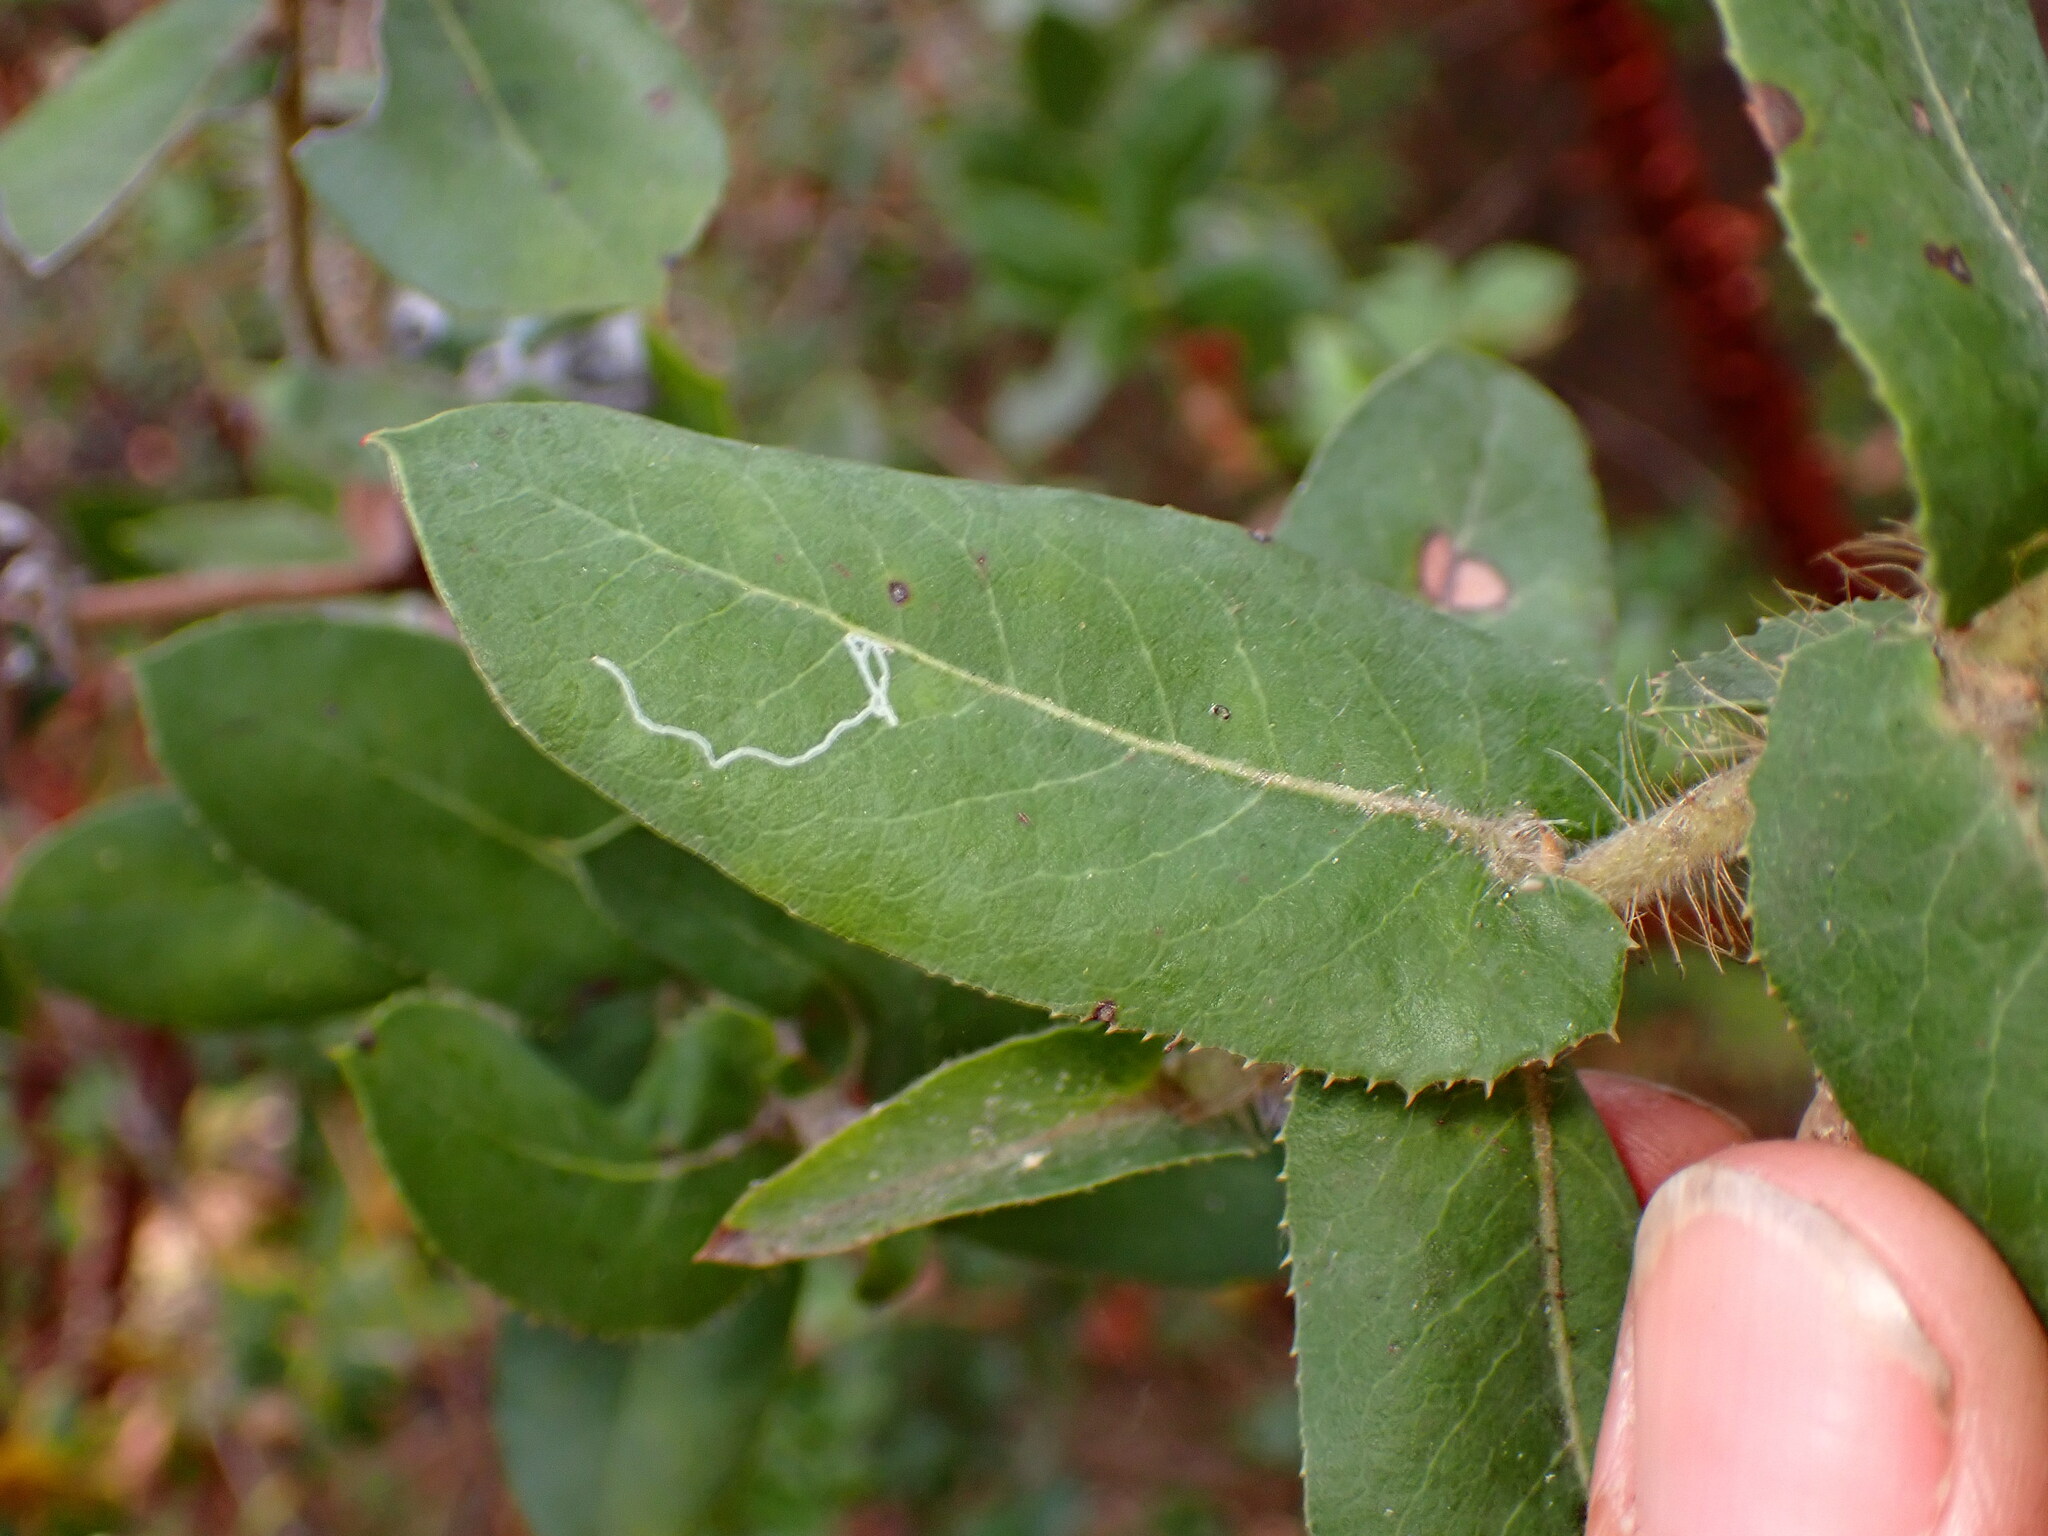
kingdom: Plantae
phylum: Tracheophyta
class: Magnoliopsida
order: Ericales
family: Ericaceae
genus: Arctostaphylos
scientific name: Arctostaphylos andersonii
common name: Santa cruz manzanita
